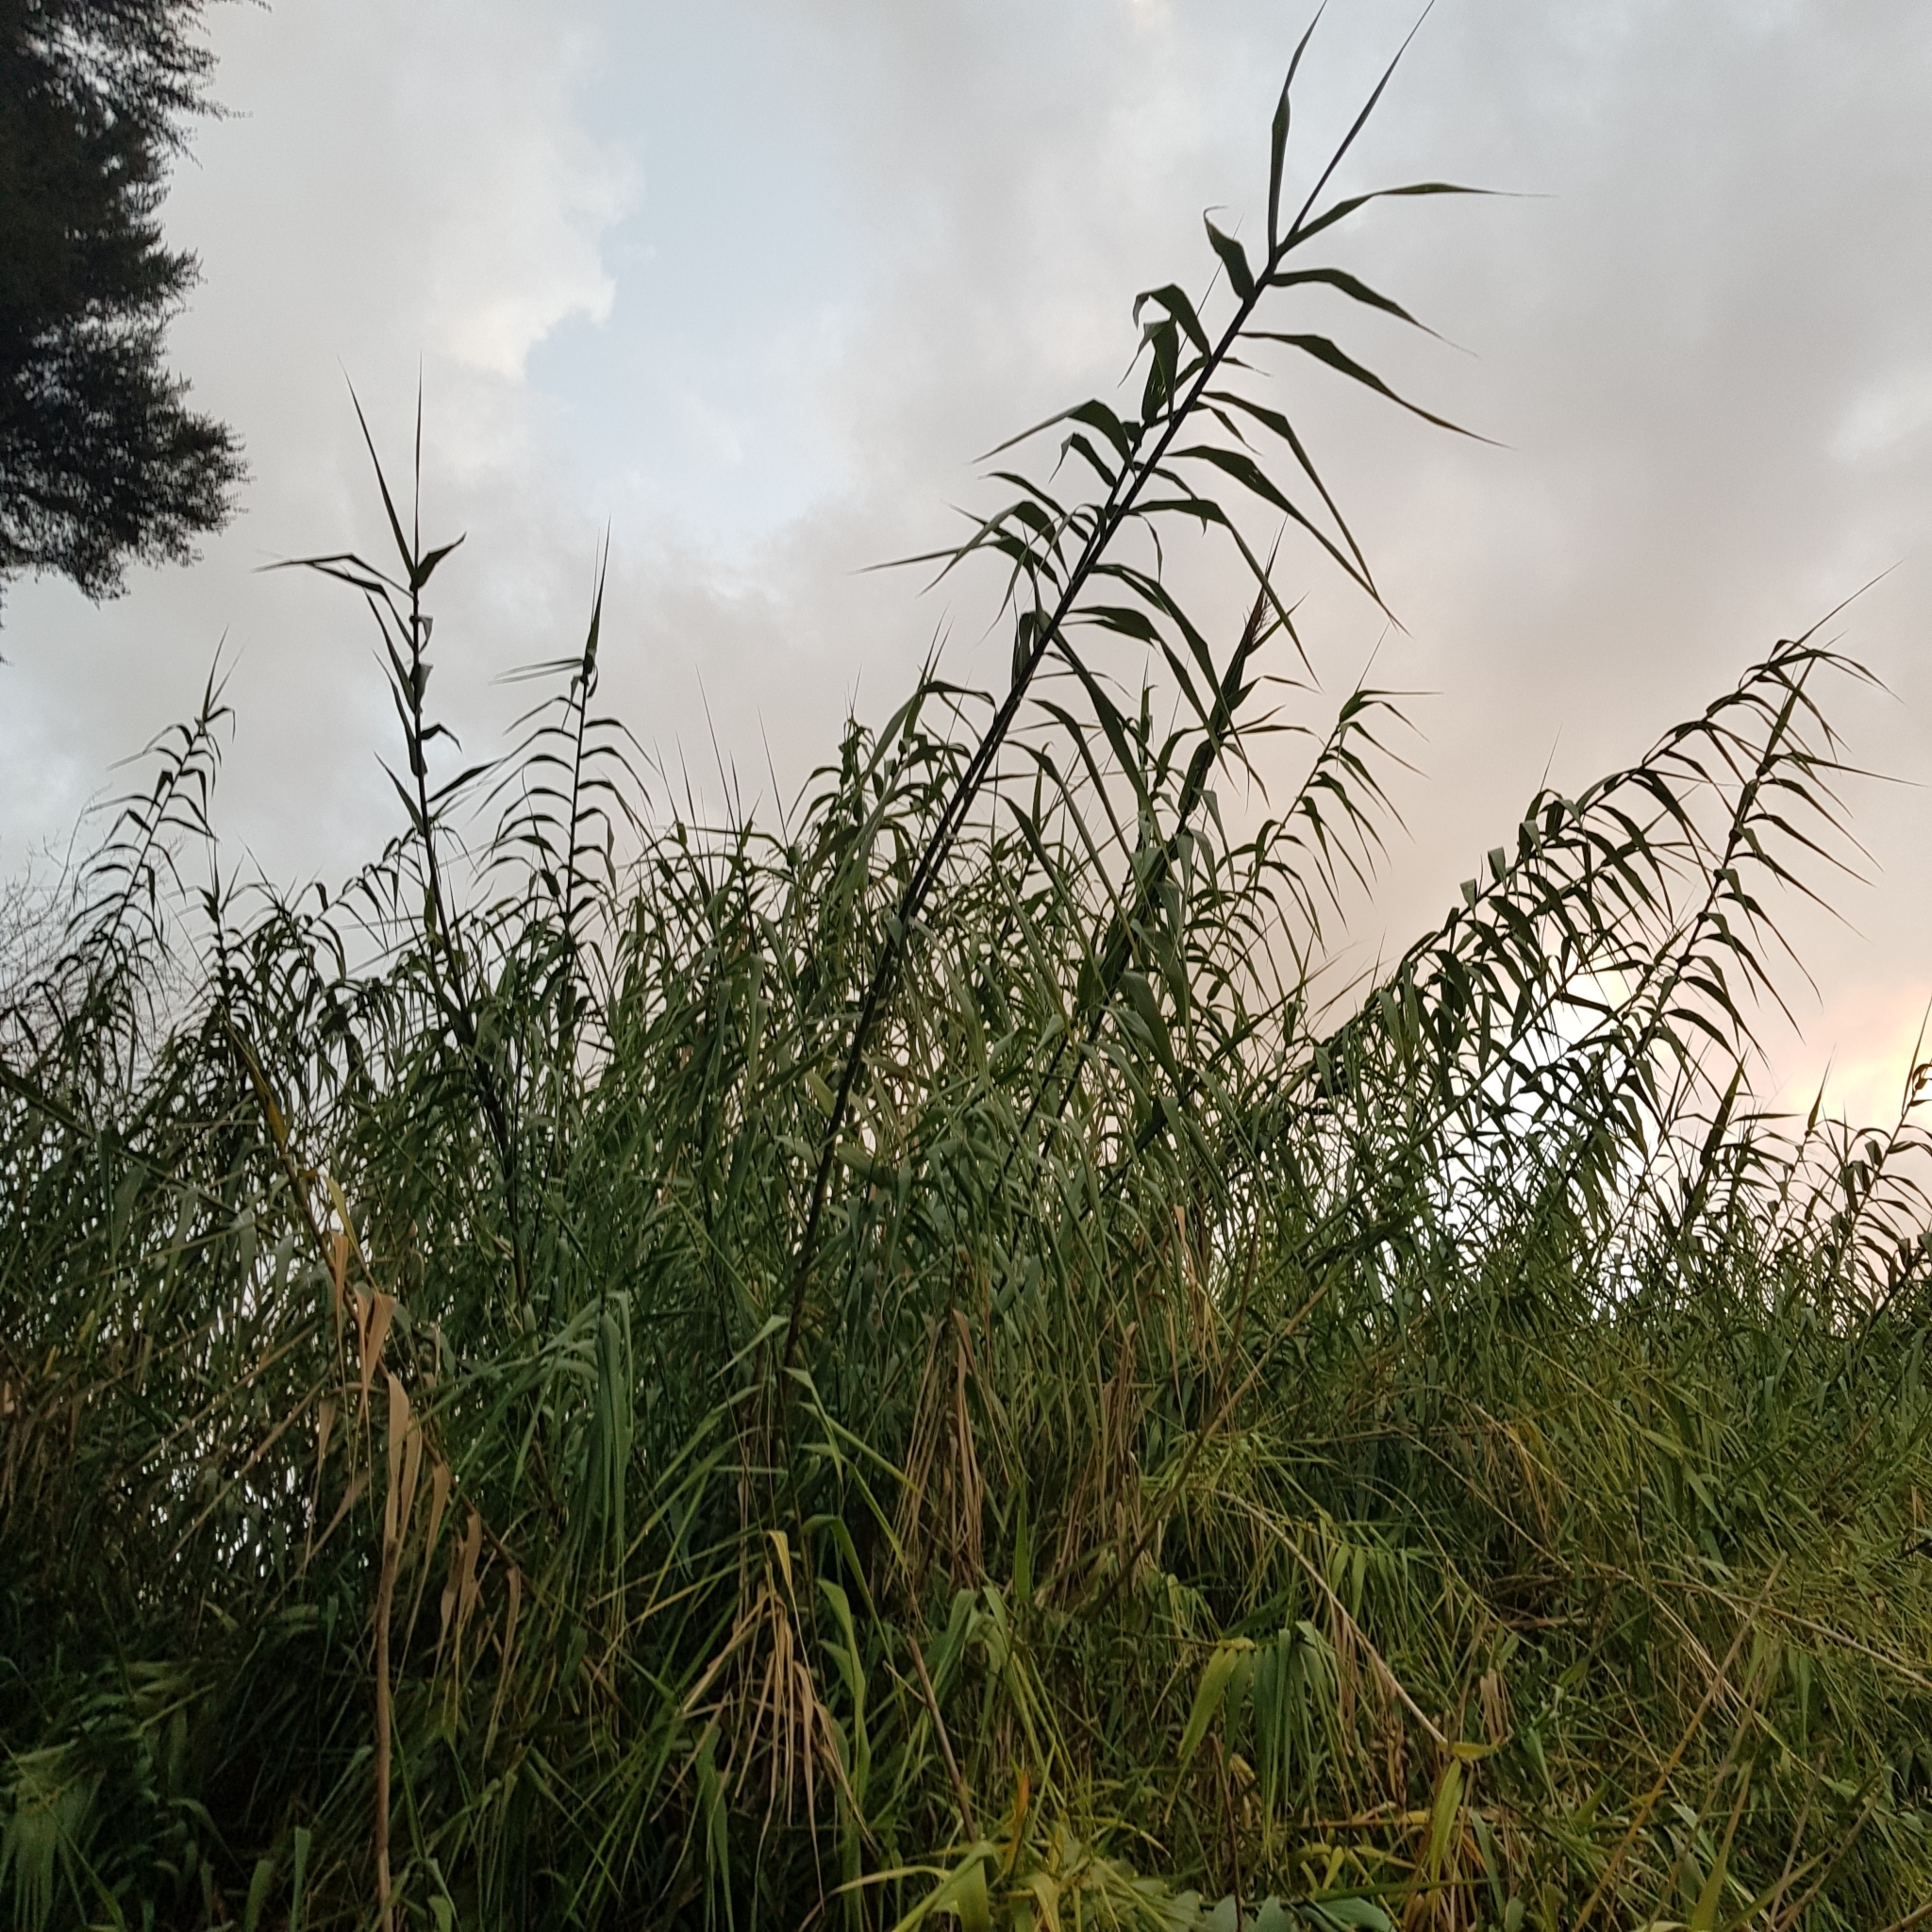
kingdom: Plantae
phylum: Tracheophyta
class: Liliopsida
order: Poales
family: Poaceae
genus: Arundo
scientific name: Arundo donax
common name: Giant reed
